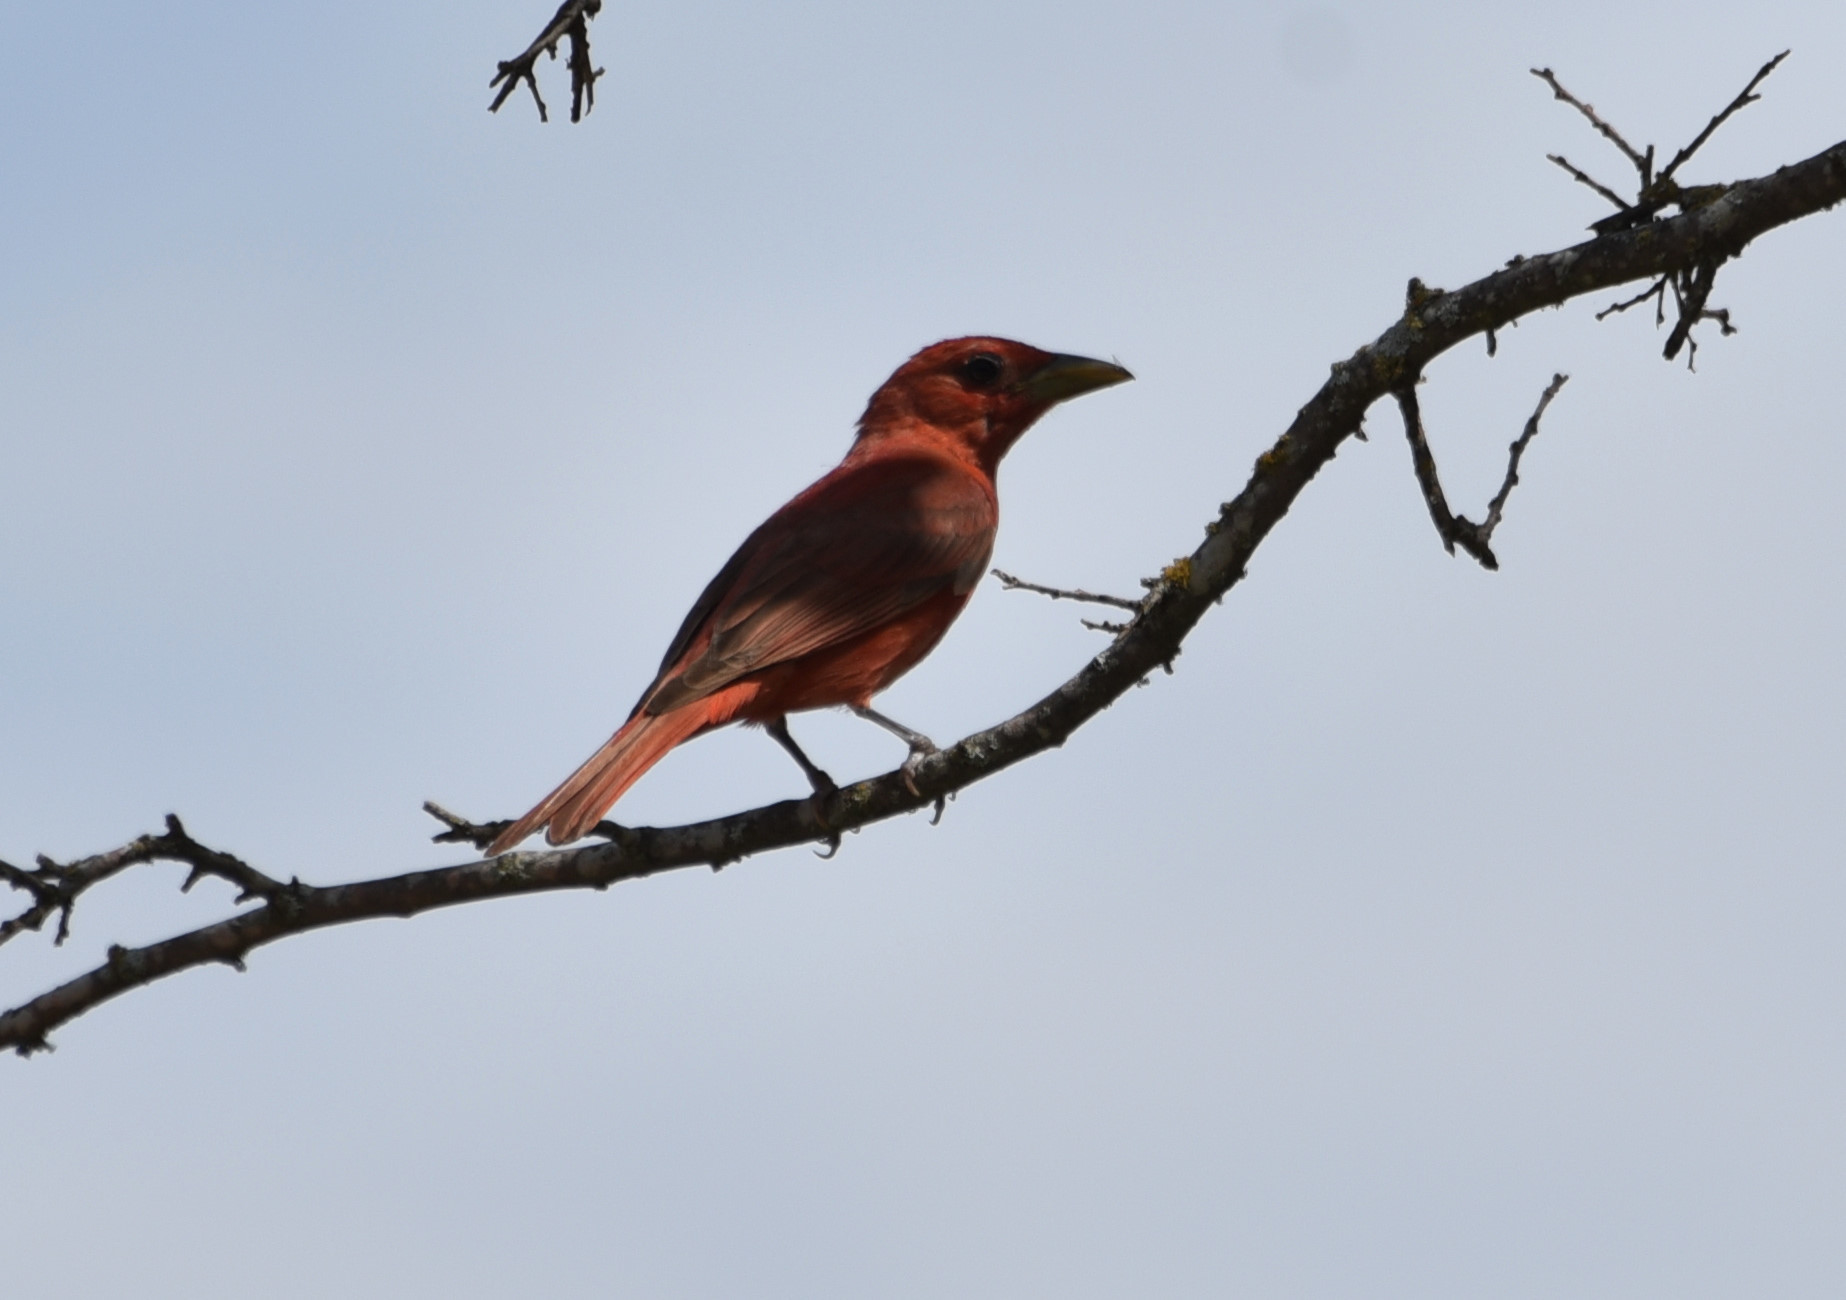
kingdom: Animalia
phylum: Chordata
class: Aves
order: Passeriformes
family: Cardinalidae
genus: Piranga
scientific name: Piranga rubra
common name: Summer tanager
